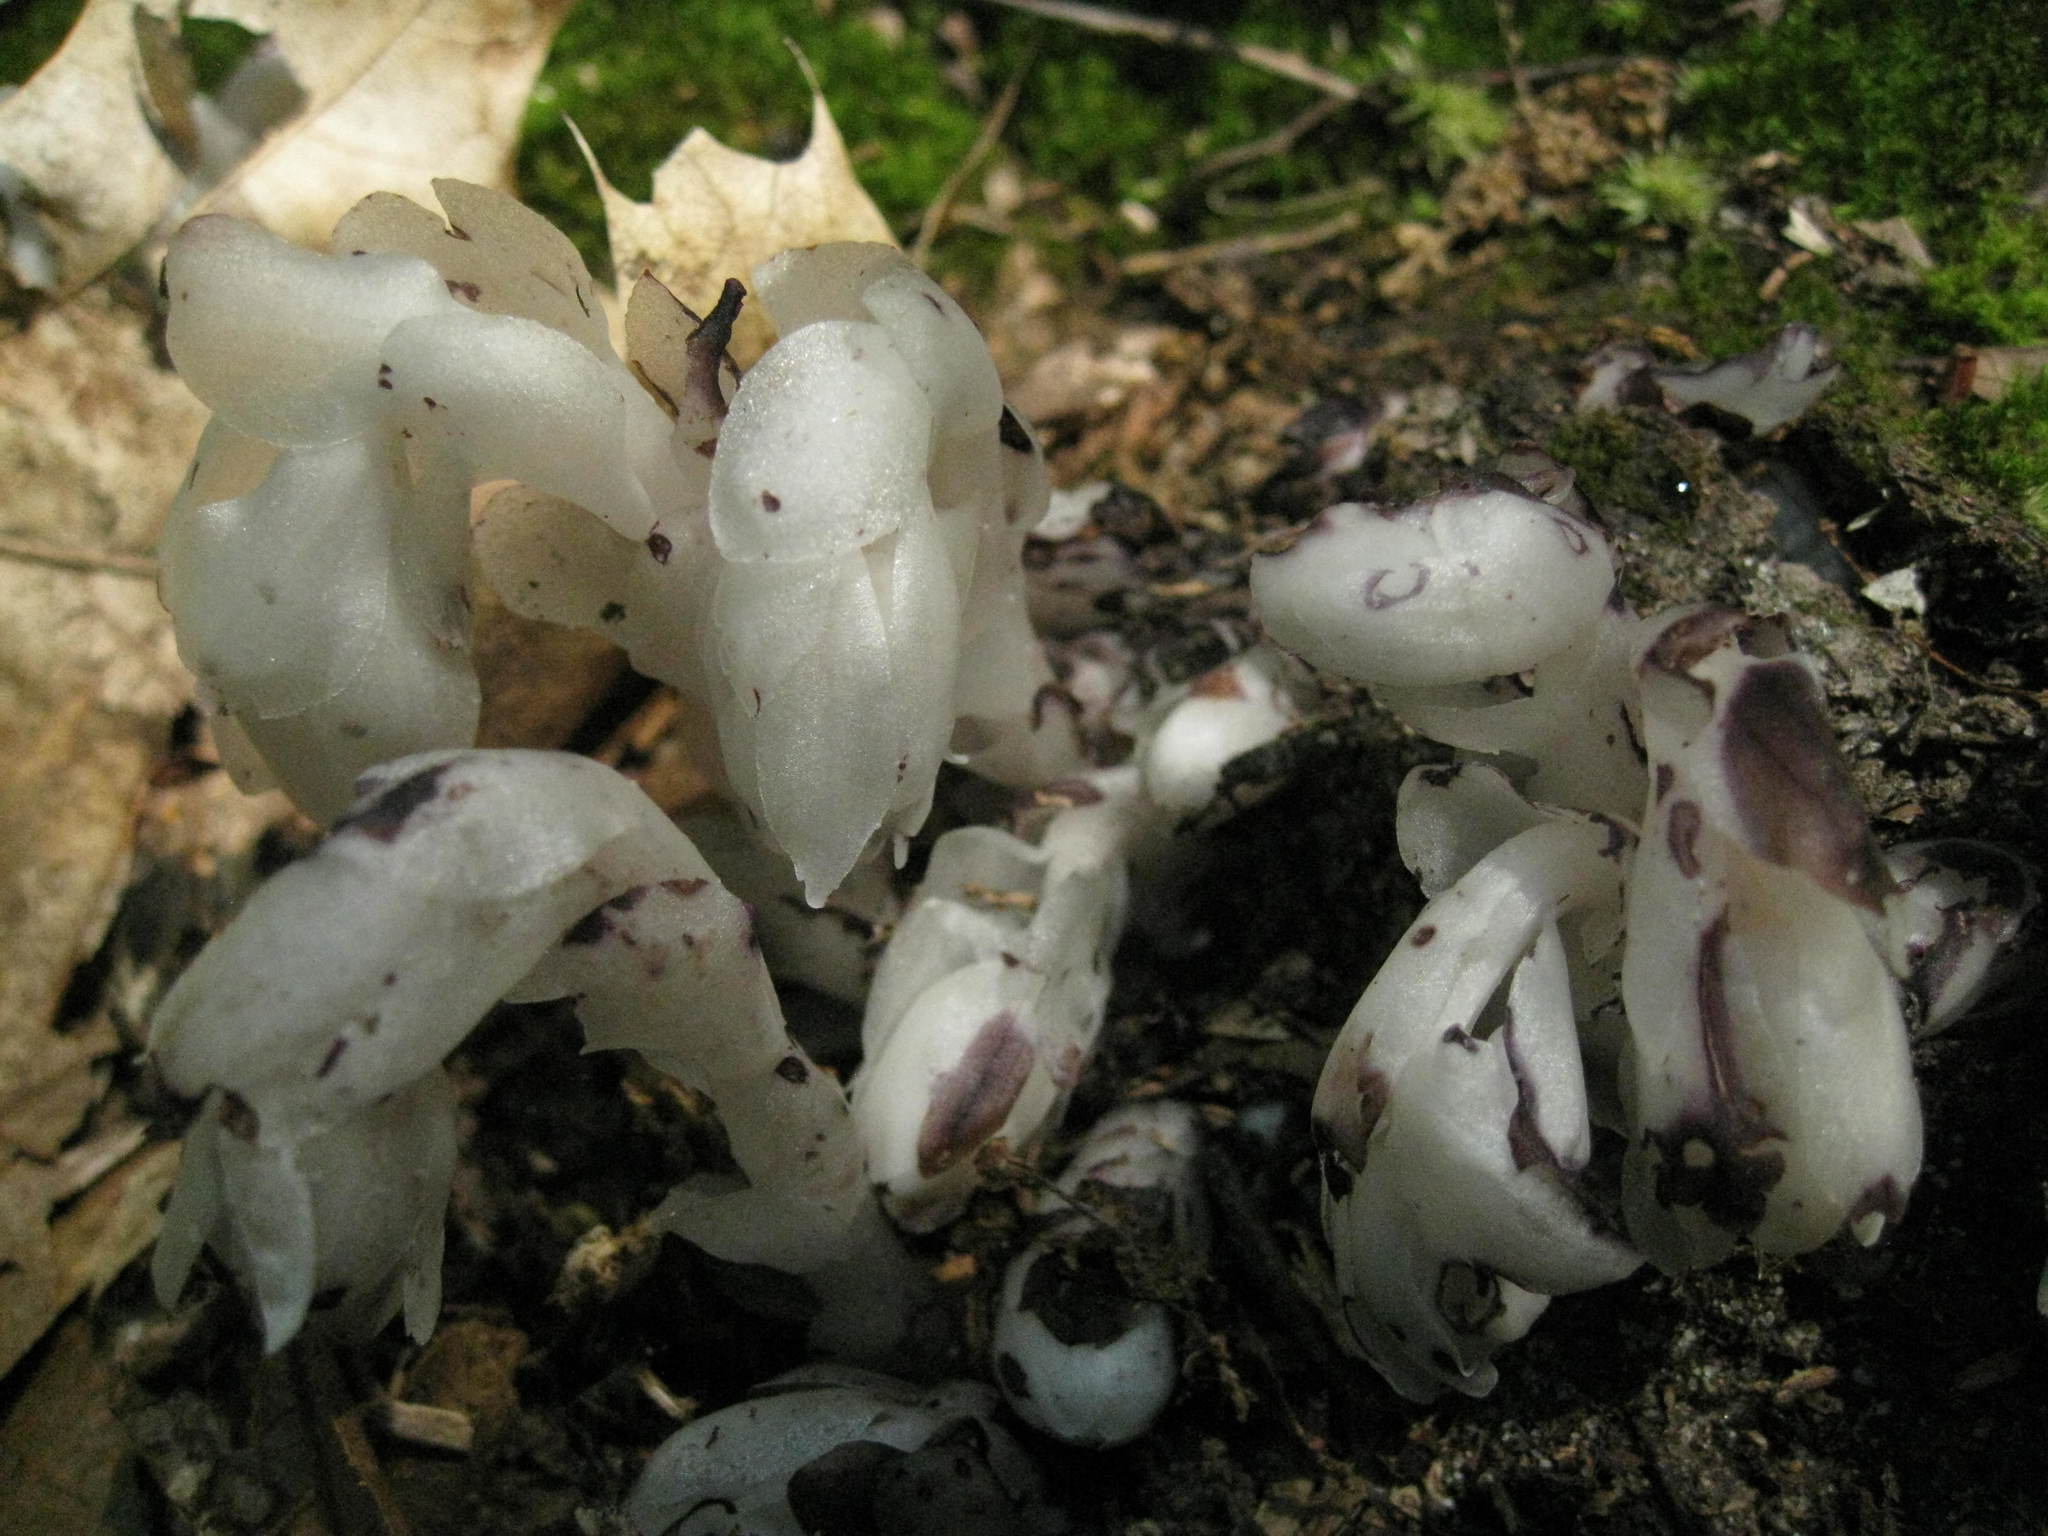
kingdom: Plantae
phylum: Tracheophyta
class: Magnoliopsida
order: Ericales
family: Ericaceae
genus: Monotropa
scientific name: Monotropa uniflora
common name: Convulsion root
